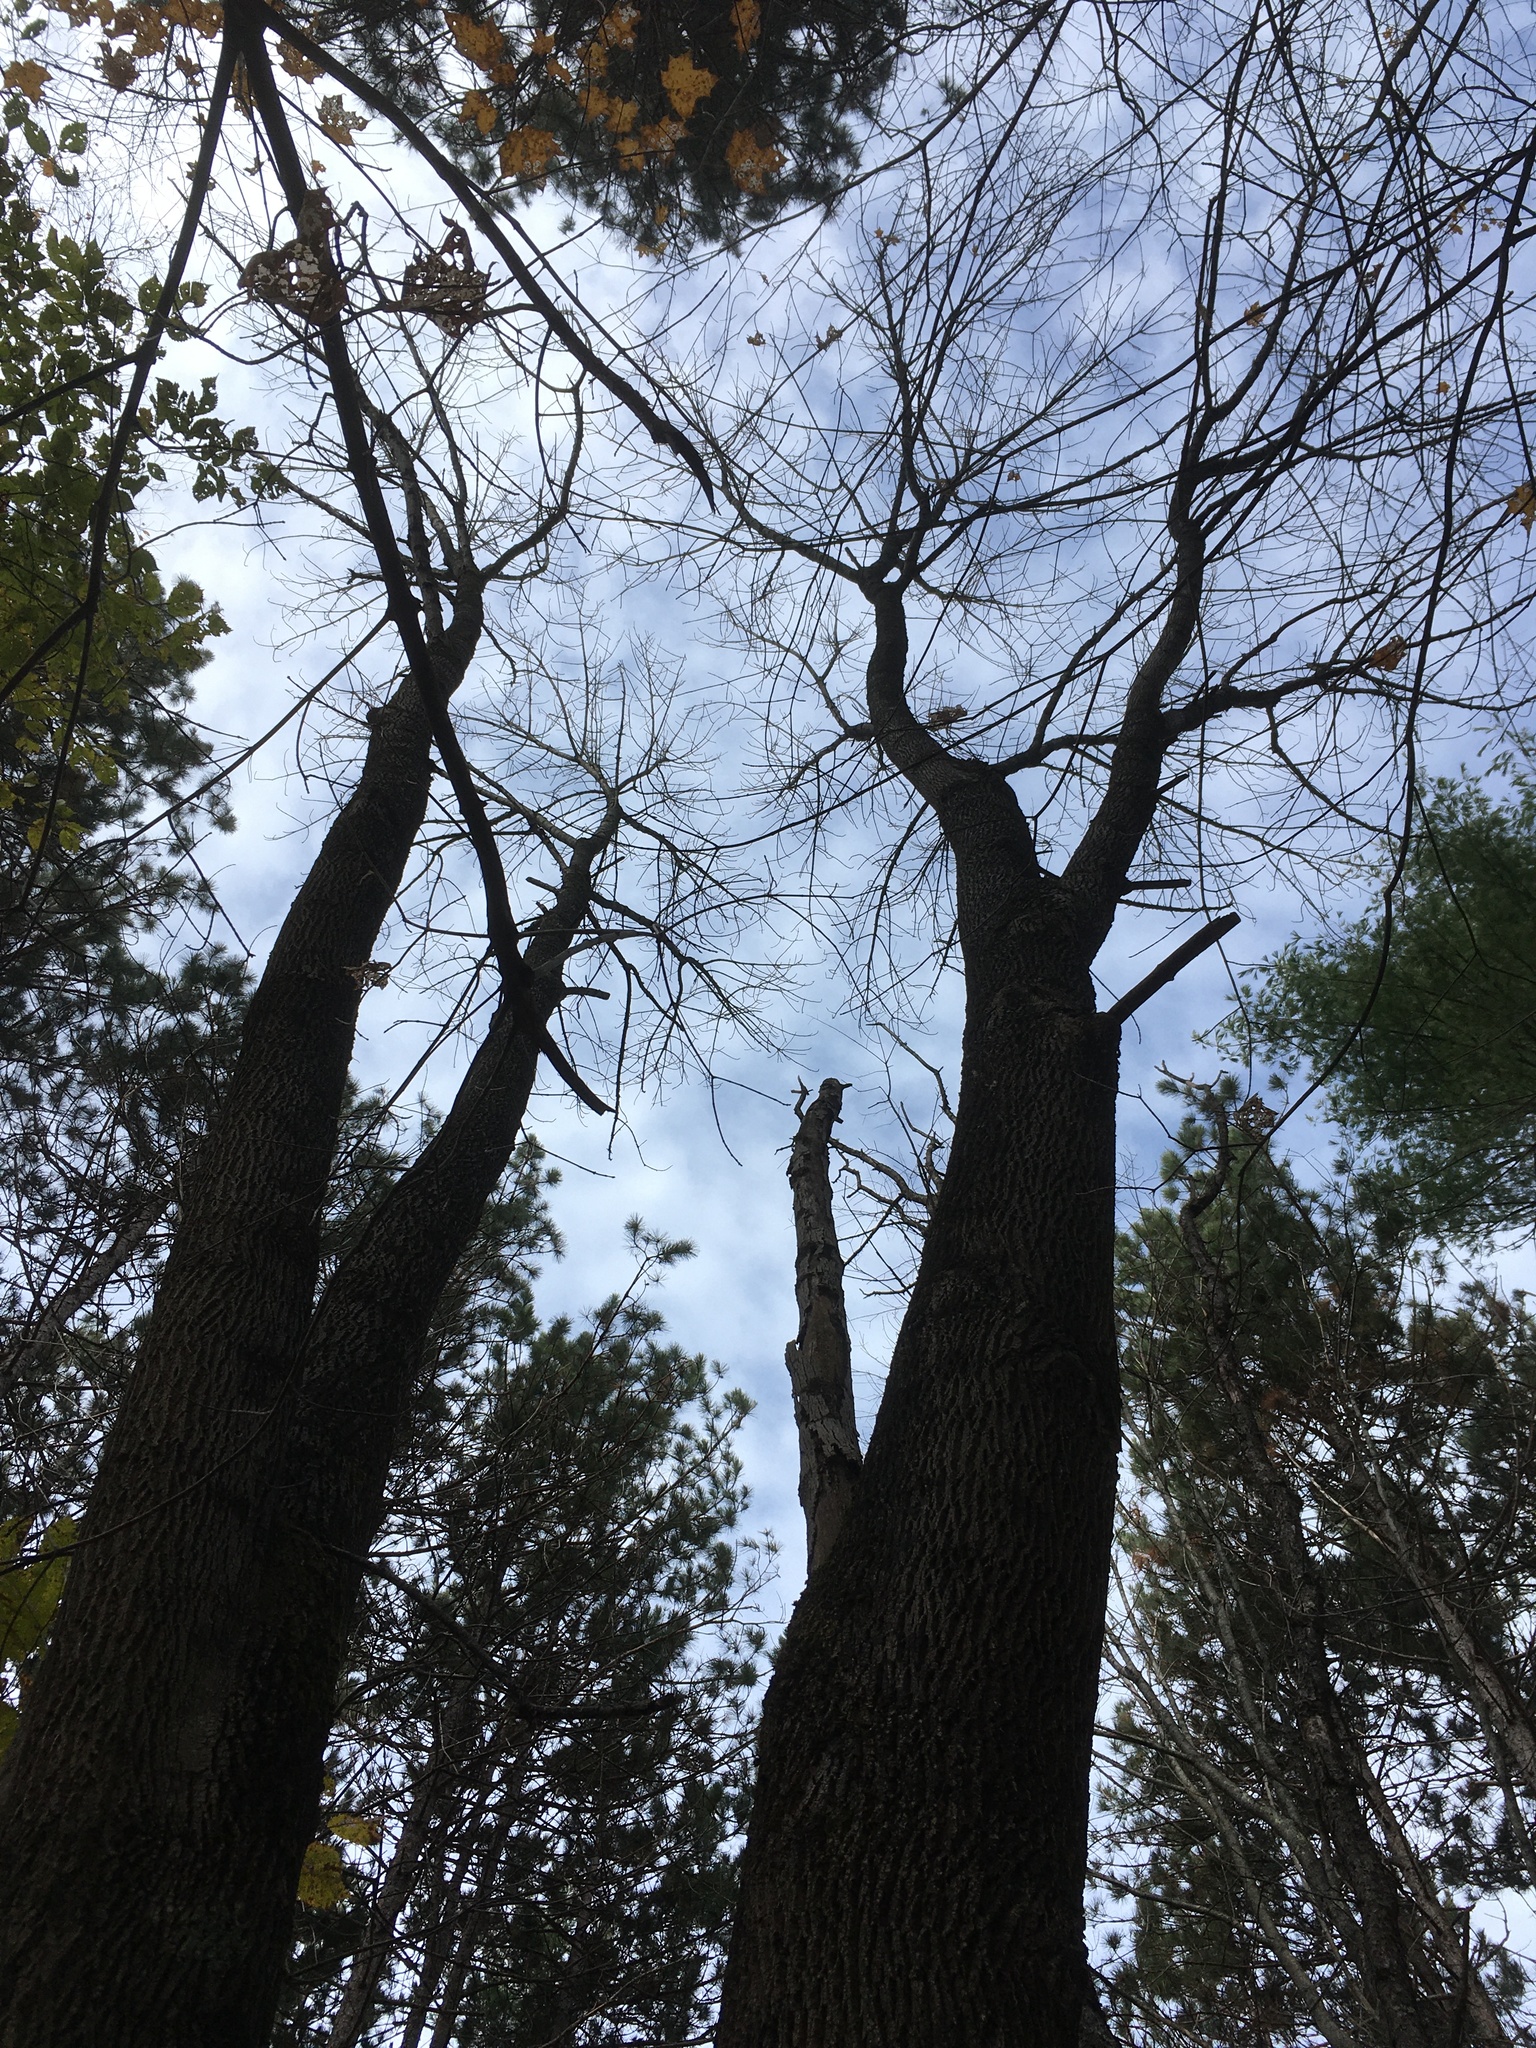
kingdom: Plantae
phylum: Tracheophyta
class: Magnoliopsida
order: Lamiales
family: Oleaceae
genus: Fraxinus
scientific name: Fraxinus americana
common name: White ash
